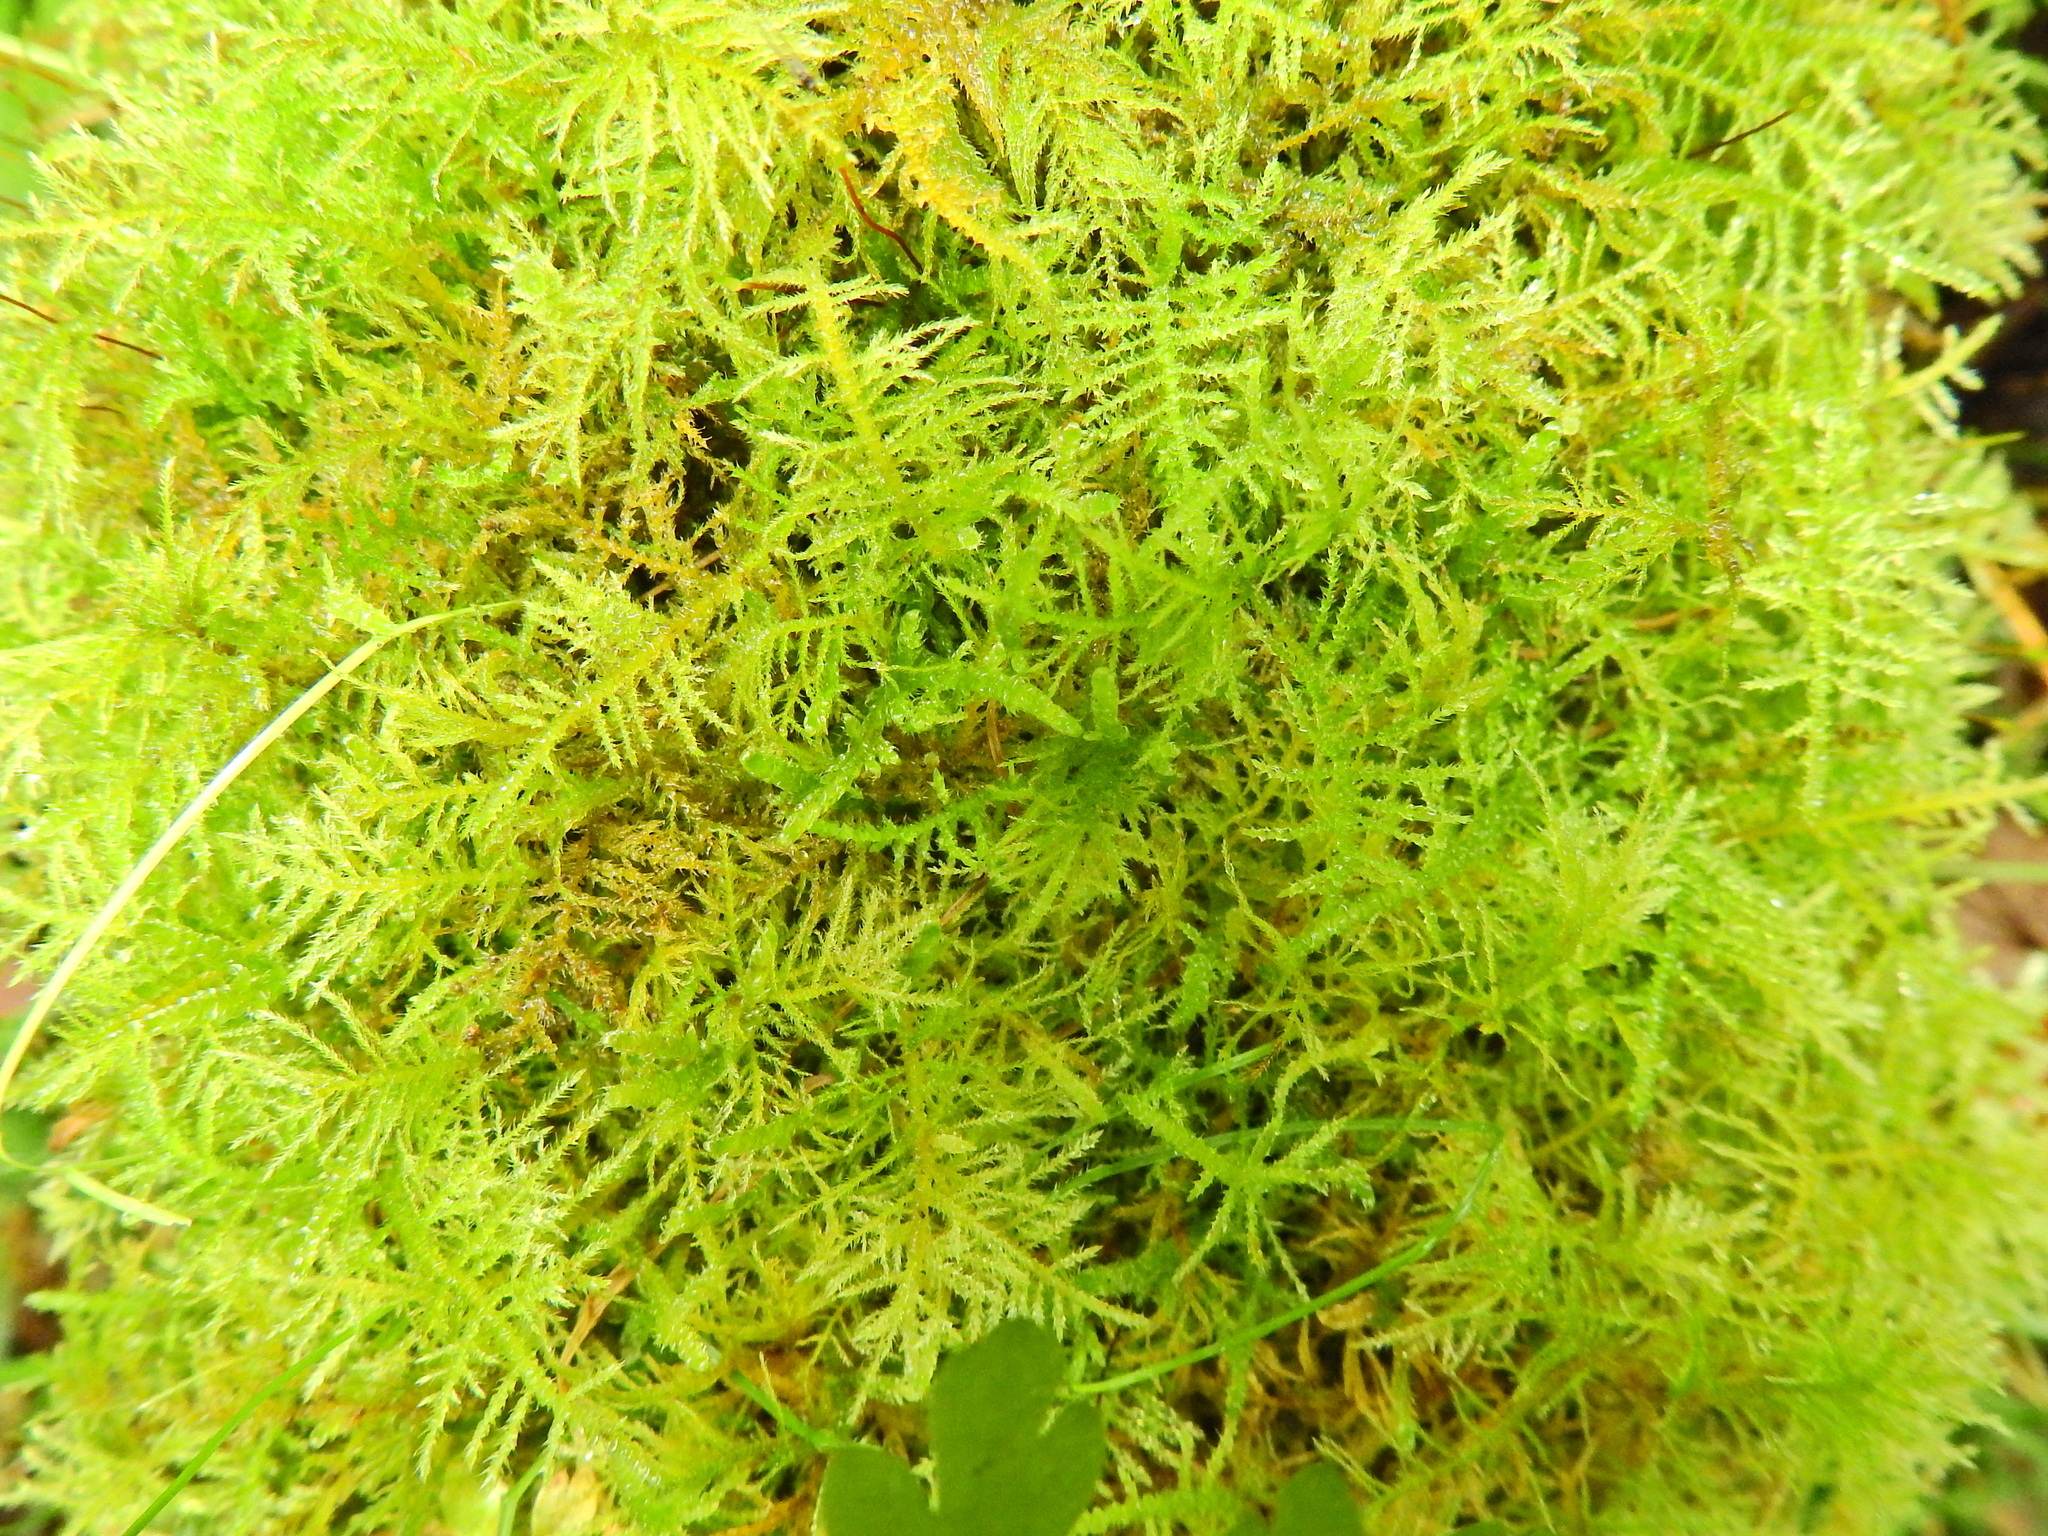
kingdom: Plantae
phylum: Bryophyta
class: Bryopsida
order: Hypnales
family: Brachytheciaceae
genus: Kindbergia
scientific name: Kindbergia praelonga
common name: Slender beaked moss
